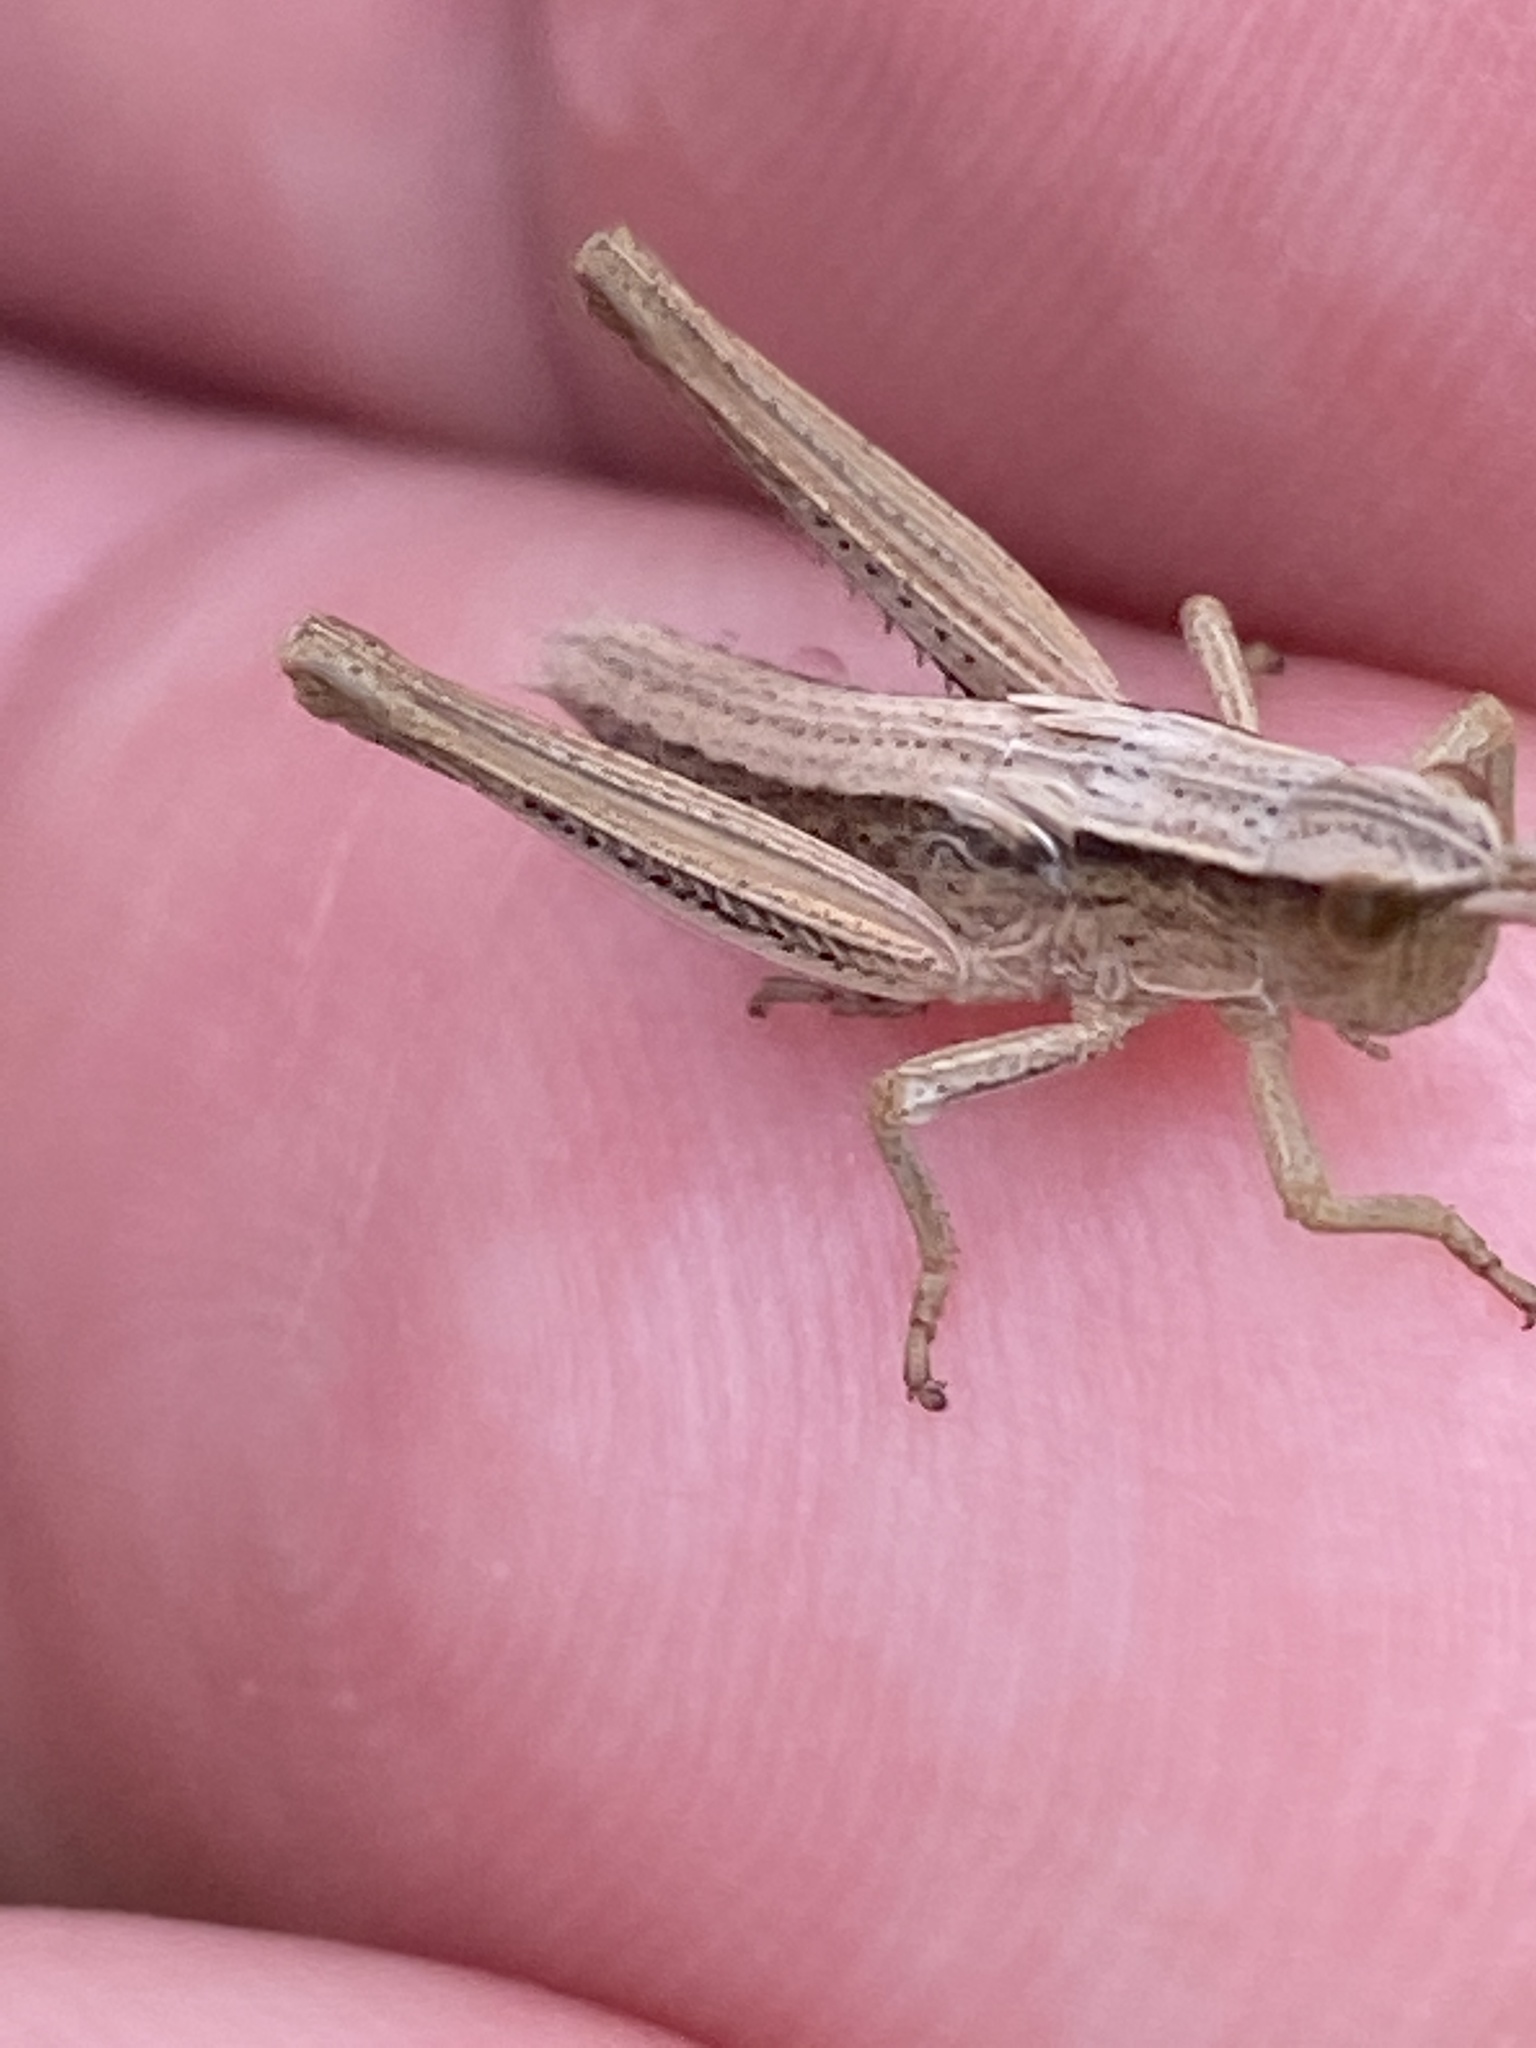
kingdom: Animalia
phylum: Arthropoda
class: Insecta
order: Orthoptera
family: Acrididae
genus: Chrysochraon
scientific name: Chrysochraon dispar
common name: Large gold grasshopper
